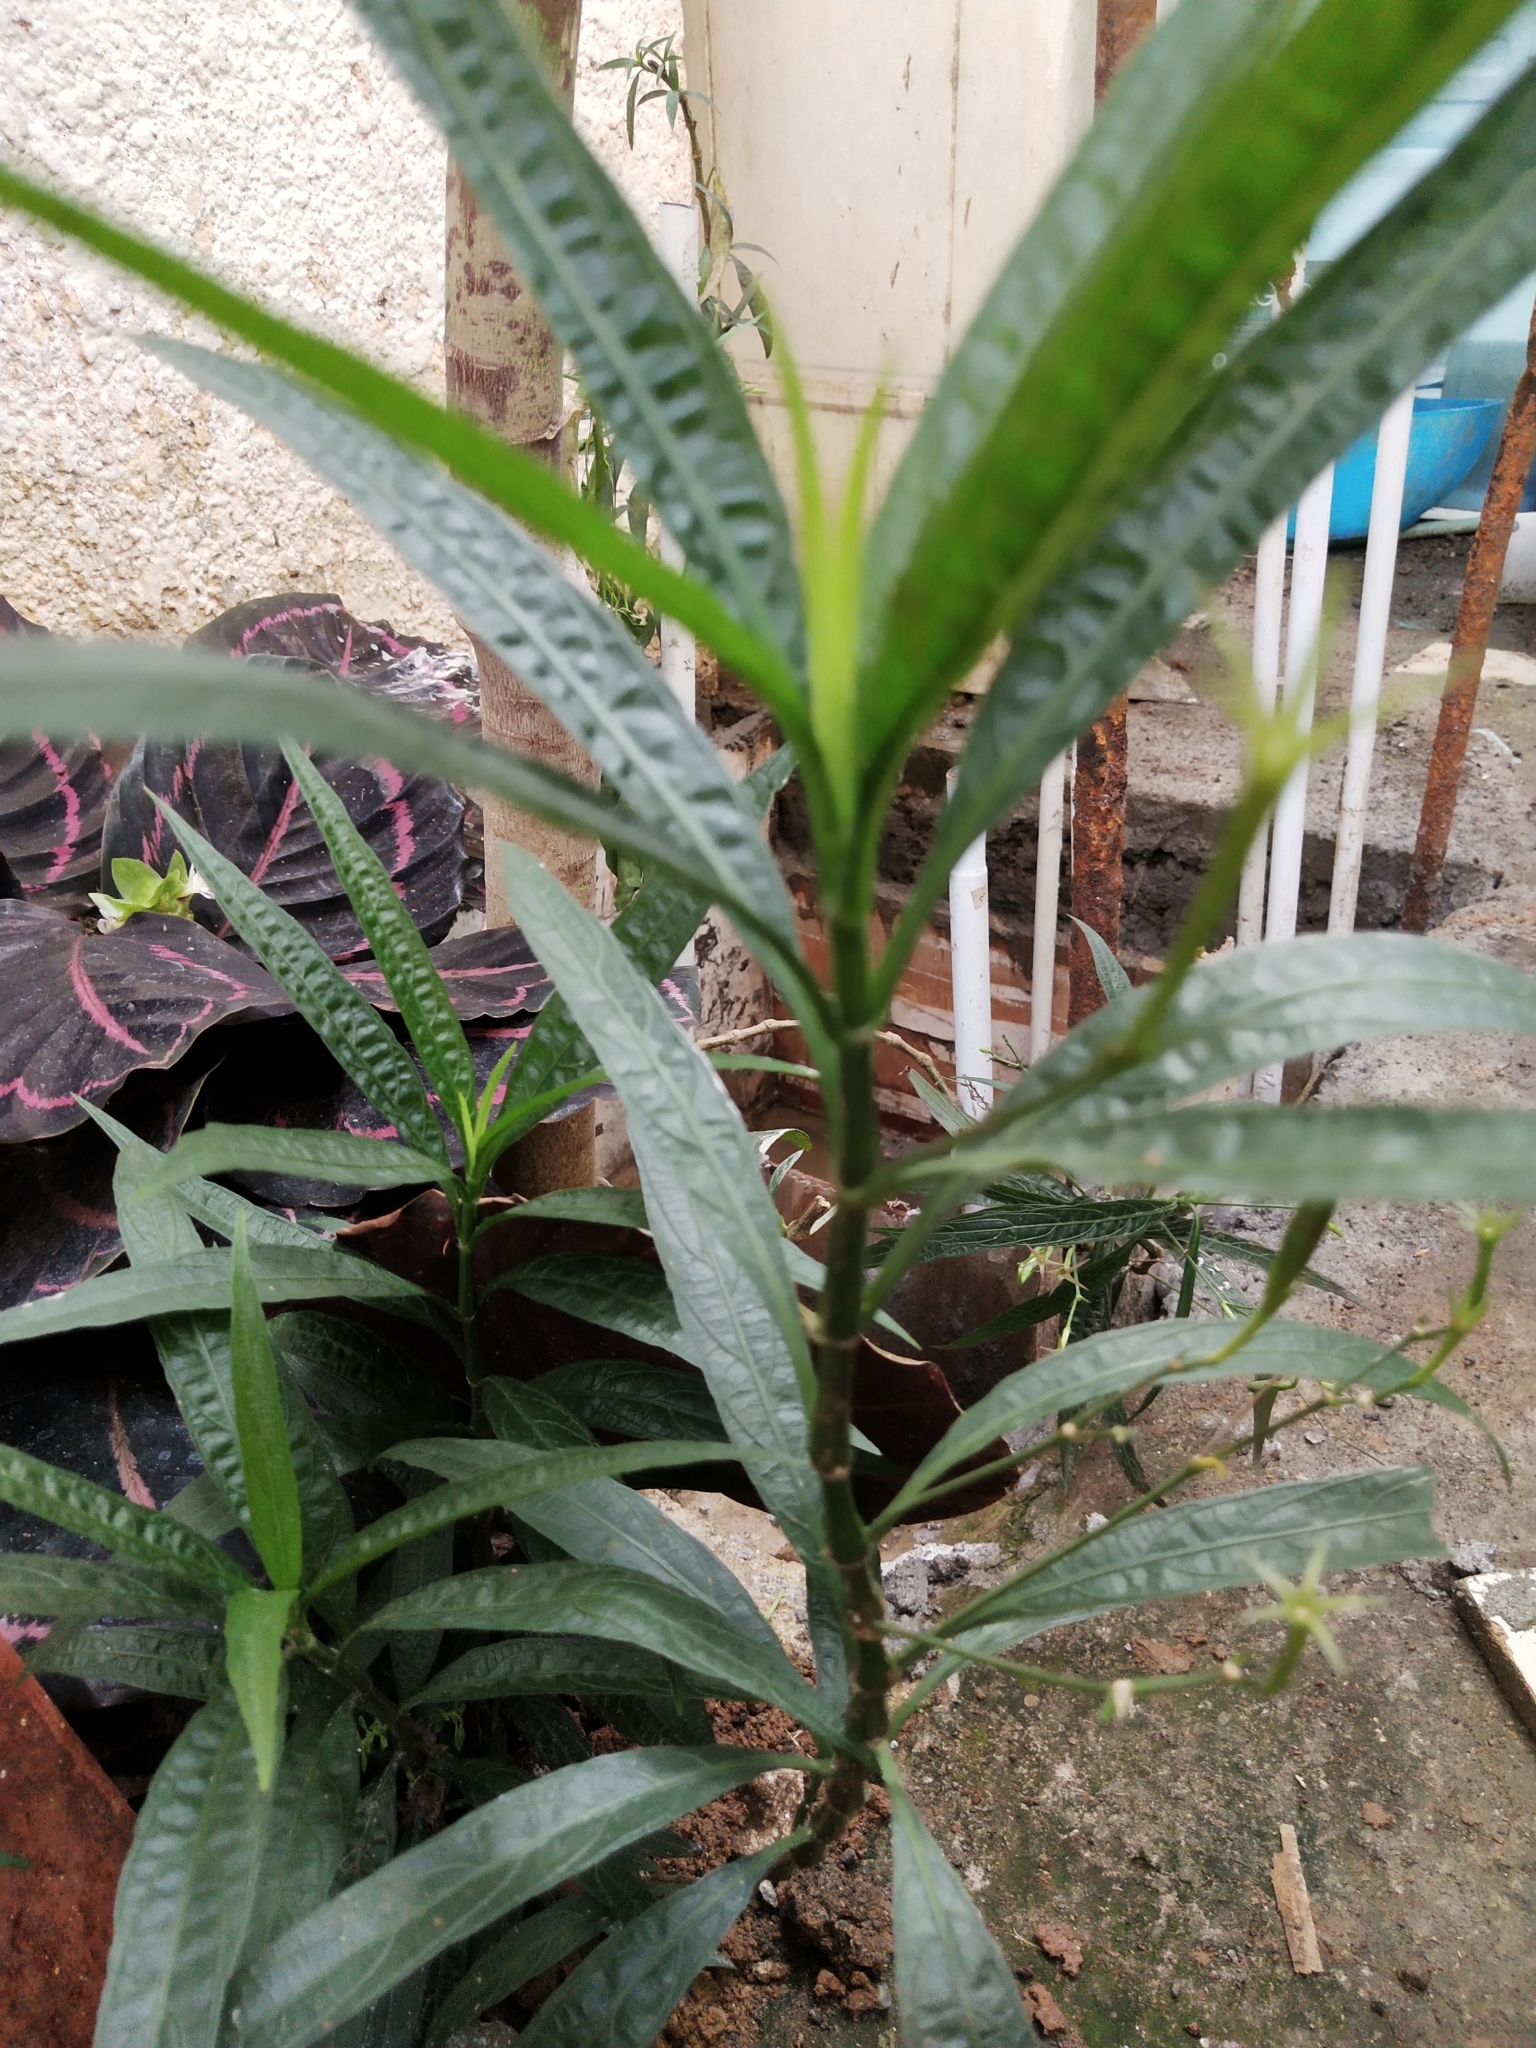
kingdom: Plantae
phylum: Tracheophyta
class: Magnoliopsida
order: Lamiales
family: Acanthaceae
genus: Ruellia
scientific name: Ruellia simplex
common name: Softseed wild petunia
